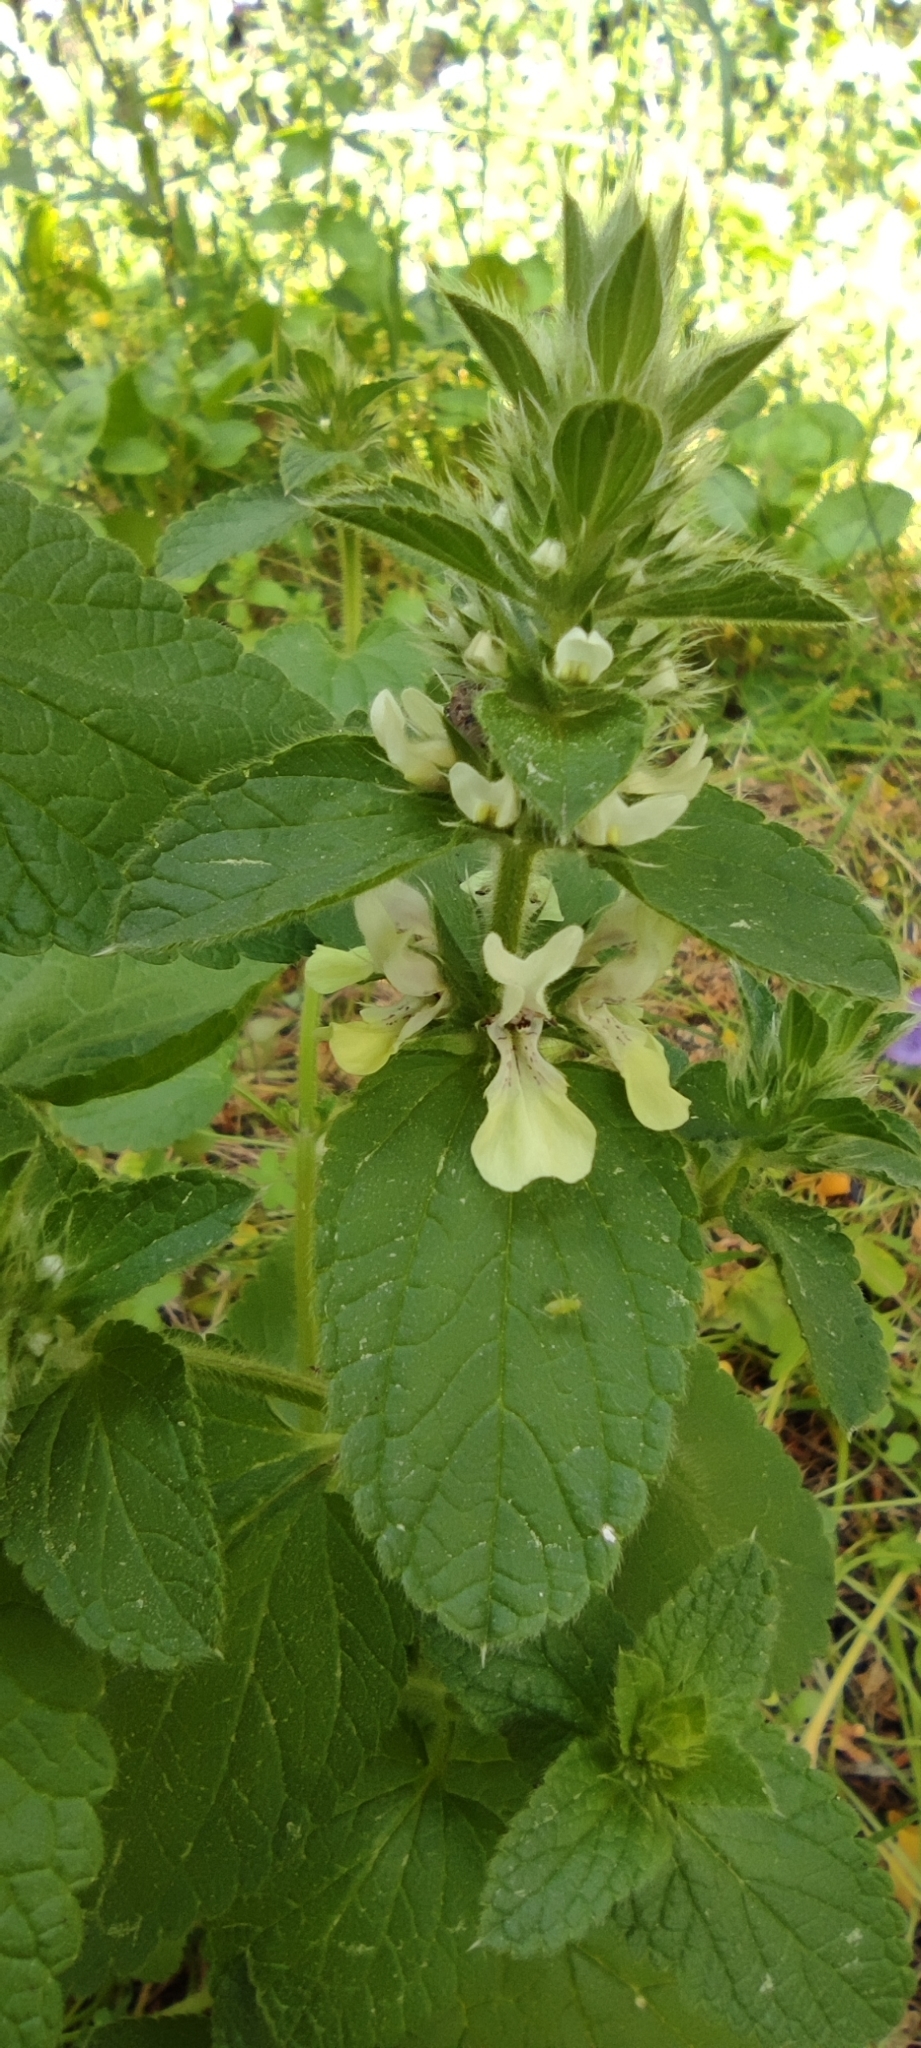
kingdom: Plantae
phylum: Tracheophyta
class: Magnoliopsida
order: Lamiales
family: Lamiaceae
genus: Stachys
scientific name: Stachys ocymastrum
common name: Italian hedgenettle
